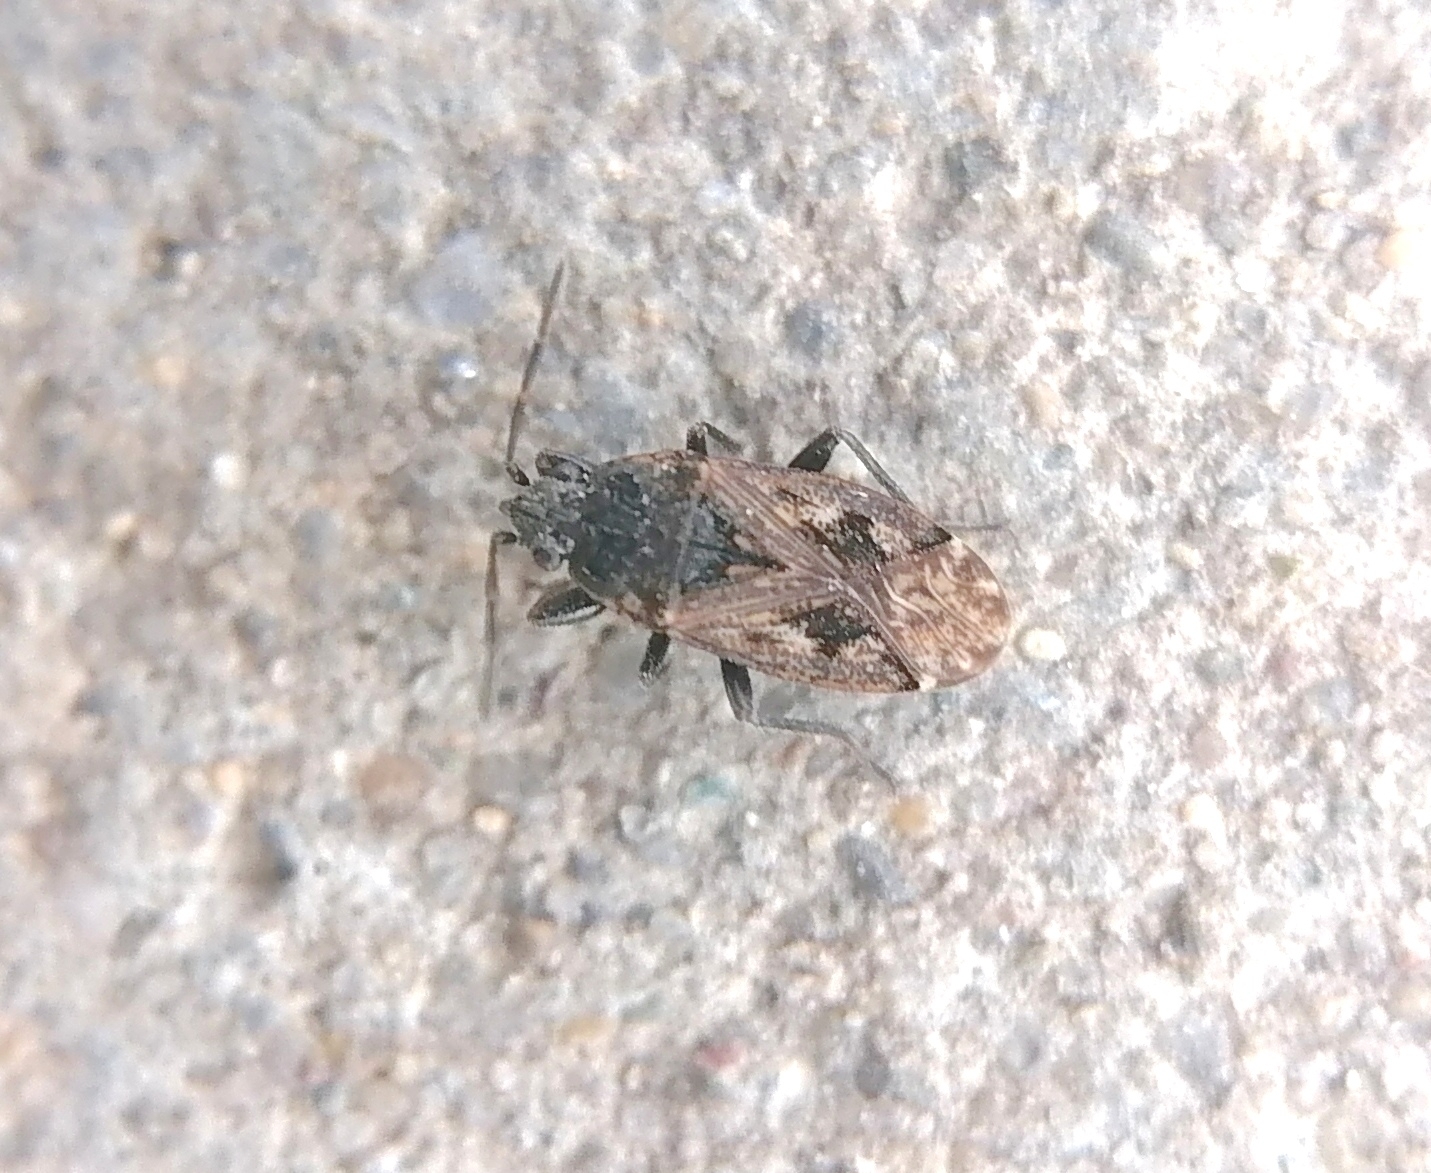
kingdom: Animalia
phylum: Arthropoda
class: Insecta
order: Hemiptera
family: Rhyparochromidae
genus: Sphragisticus
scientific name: Sphragisticus nebulosus
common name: Dirt-colored seed bug
